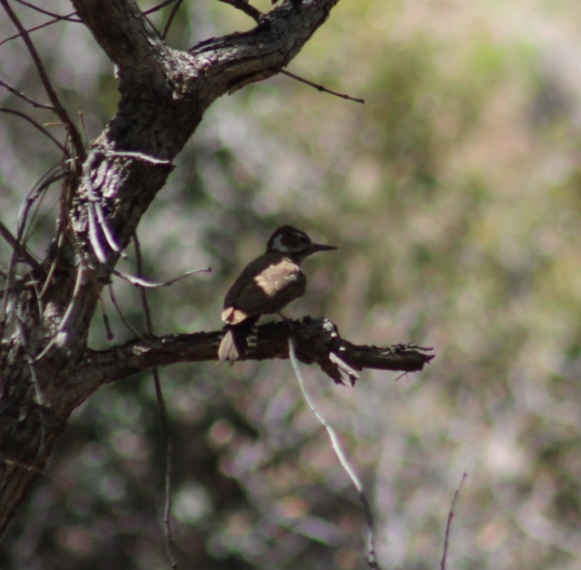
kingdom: Animalia
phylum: Chordata
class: Aves
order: Piciformes
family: Picidae
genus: Leuconotopicus
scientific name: Leuconotopicus arizonae
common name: Arizona woodpecker
